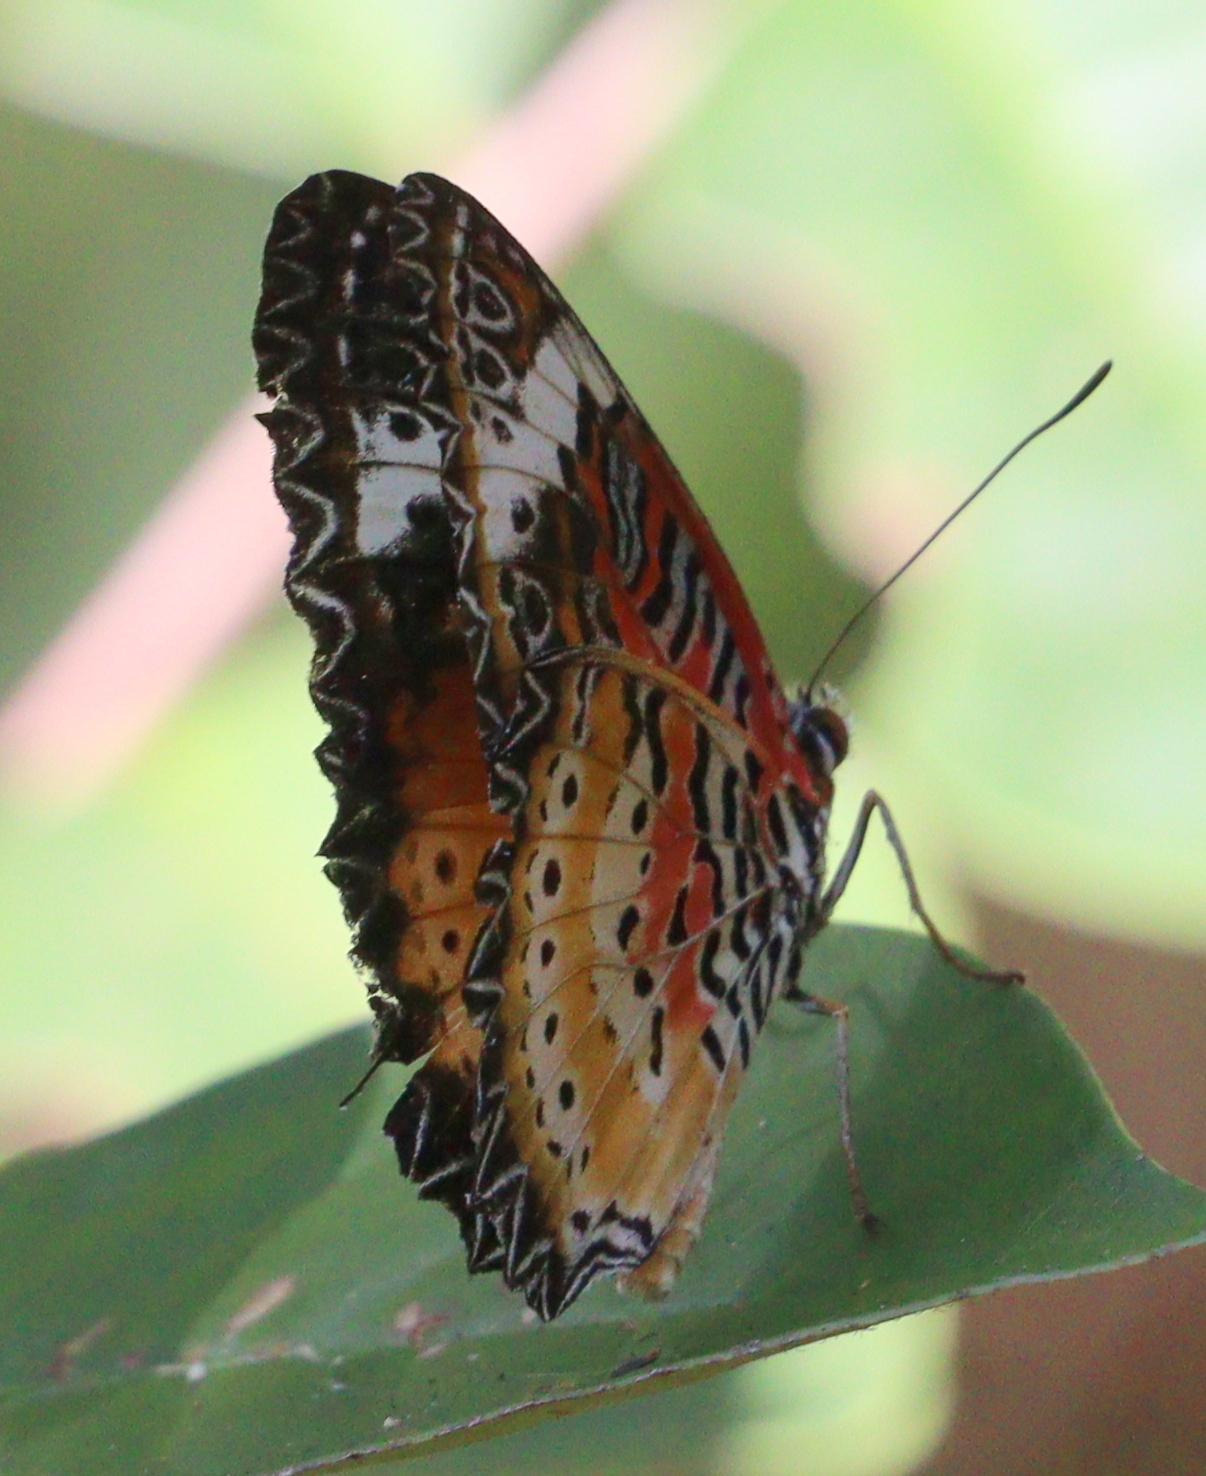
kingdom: Animalia
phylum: Arthropoda
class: Insecta
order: Lepidoptera
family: Nymphalidae
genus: Cethosia
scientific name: Cethosia cyane
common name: Leopard lacewing butterfly
